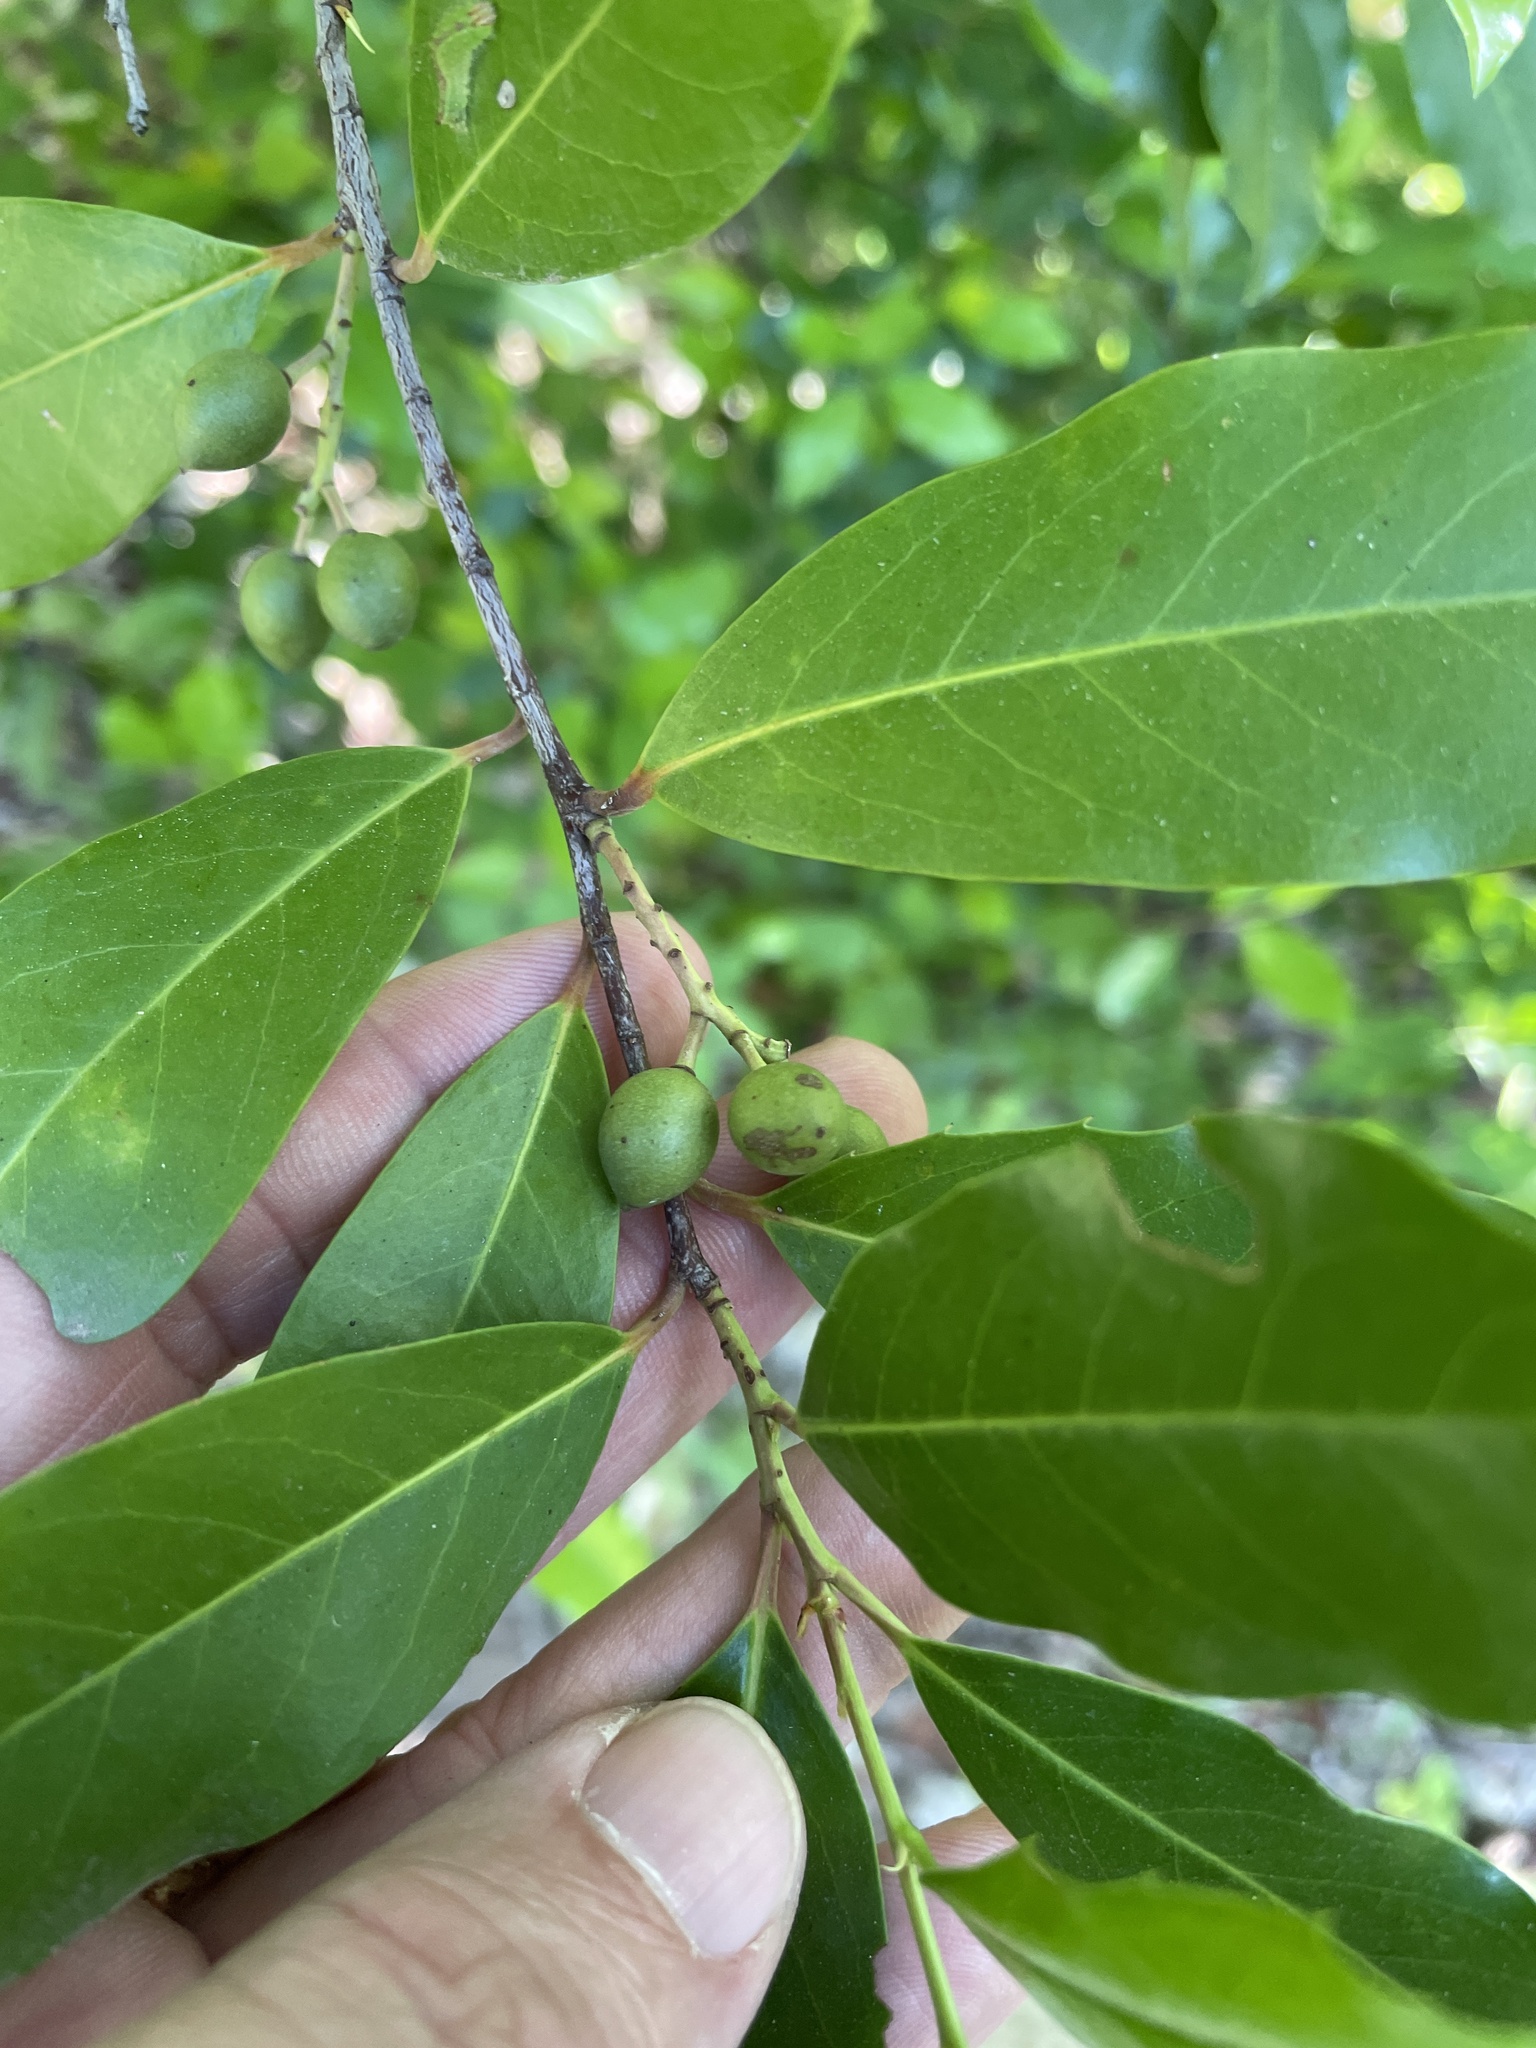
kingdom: Plantae
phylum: Tracheophyta
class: Magnoliopsida
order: Rosales
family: Rosaceae
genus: Prunus
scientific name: Prunus caroliniana
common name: Carolina laurel cherry
